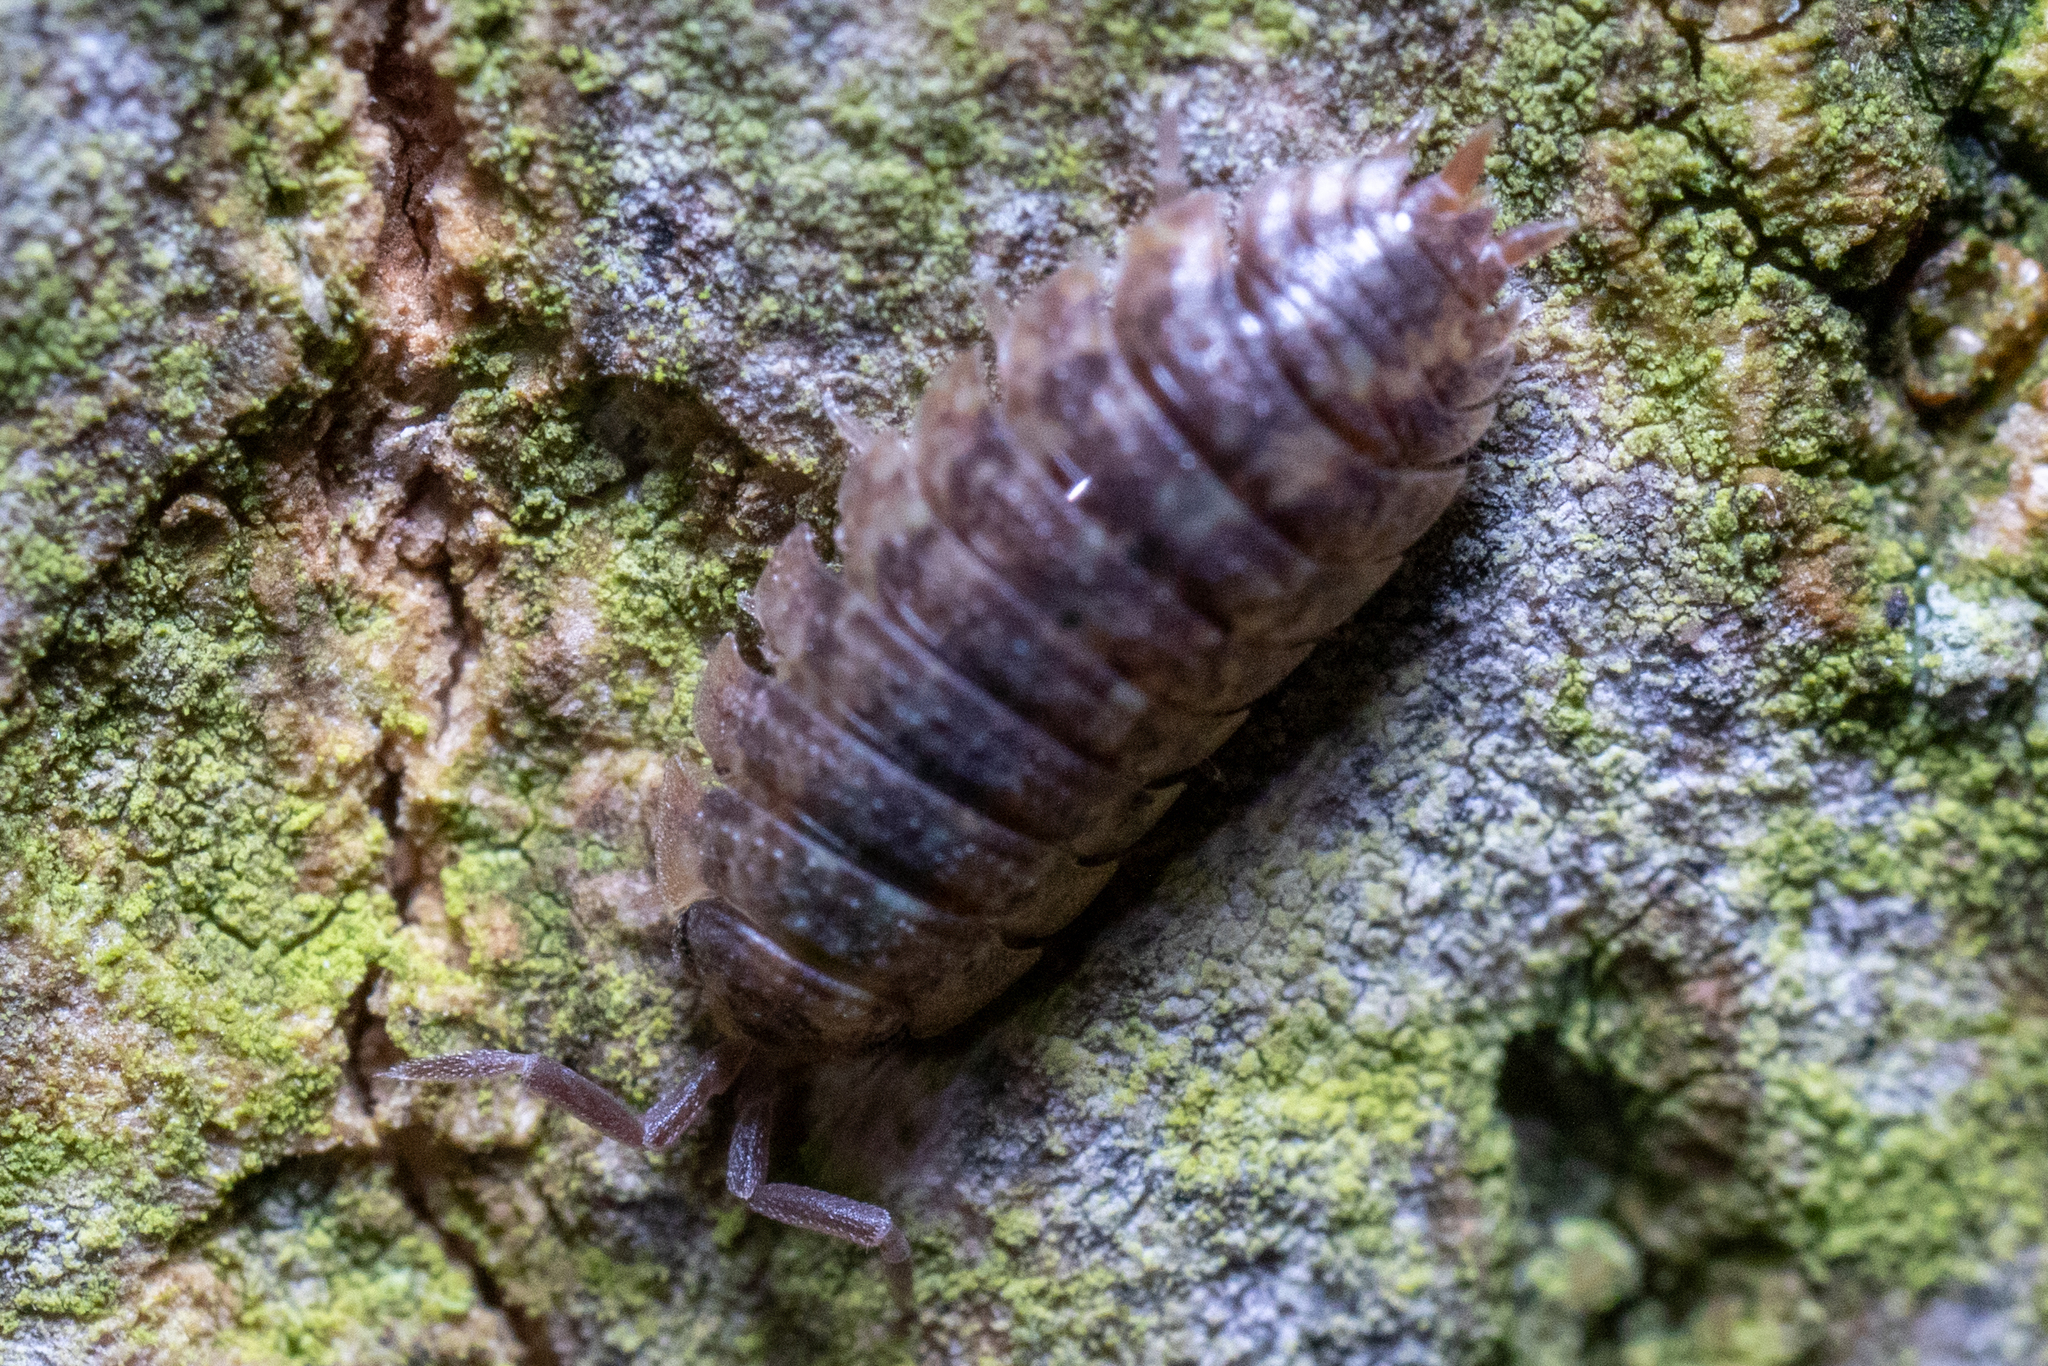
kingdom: Animalia
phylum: Arthropoda
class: Malacostraca
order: Isopoda
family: Porcellionidae
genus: Porcellio
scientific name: Porcellio scaber
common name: Common rough woodlouse
